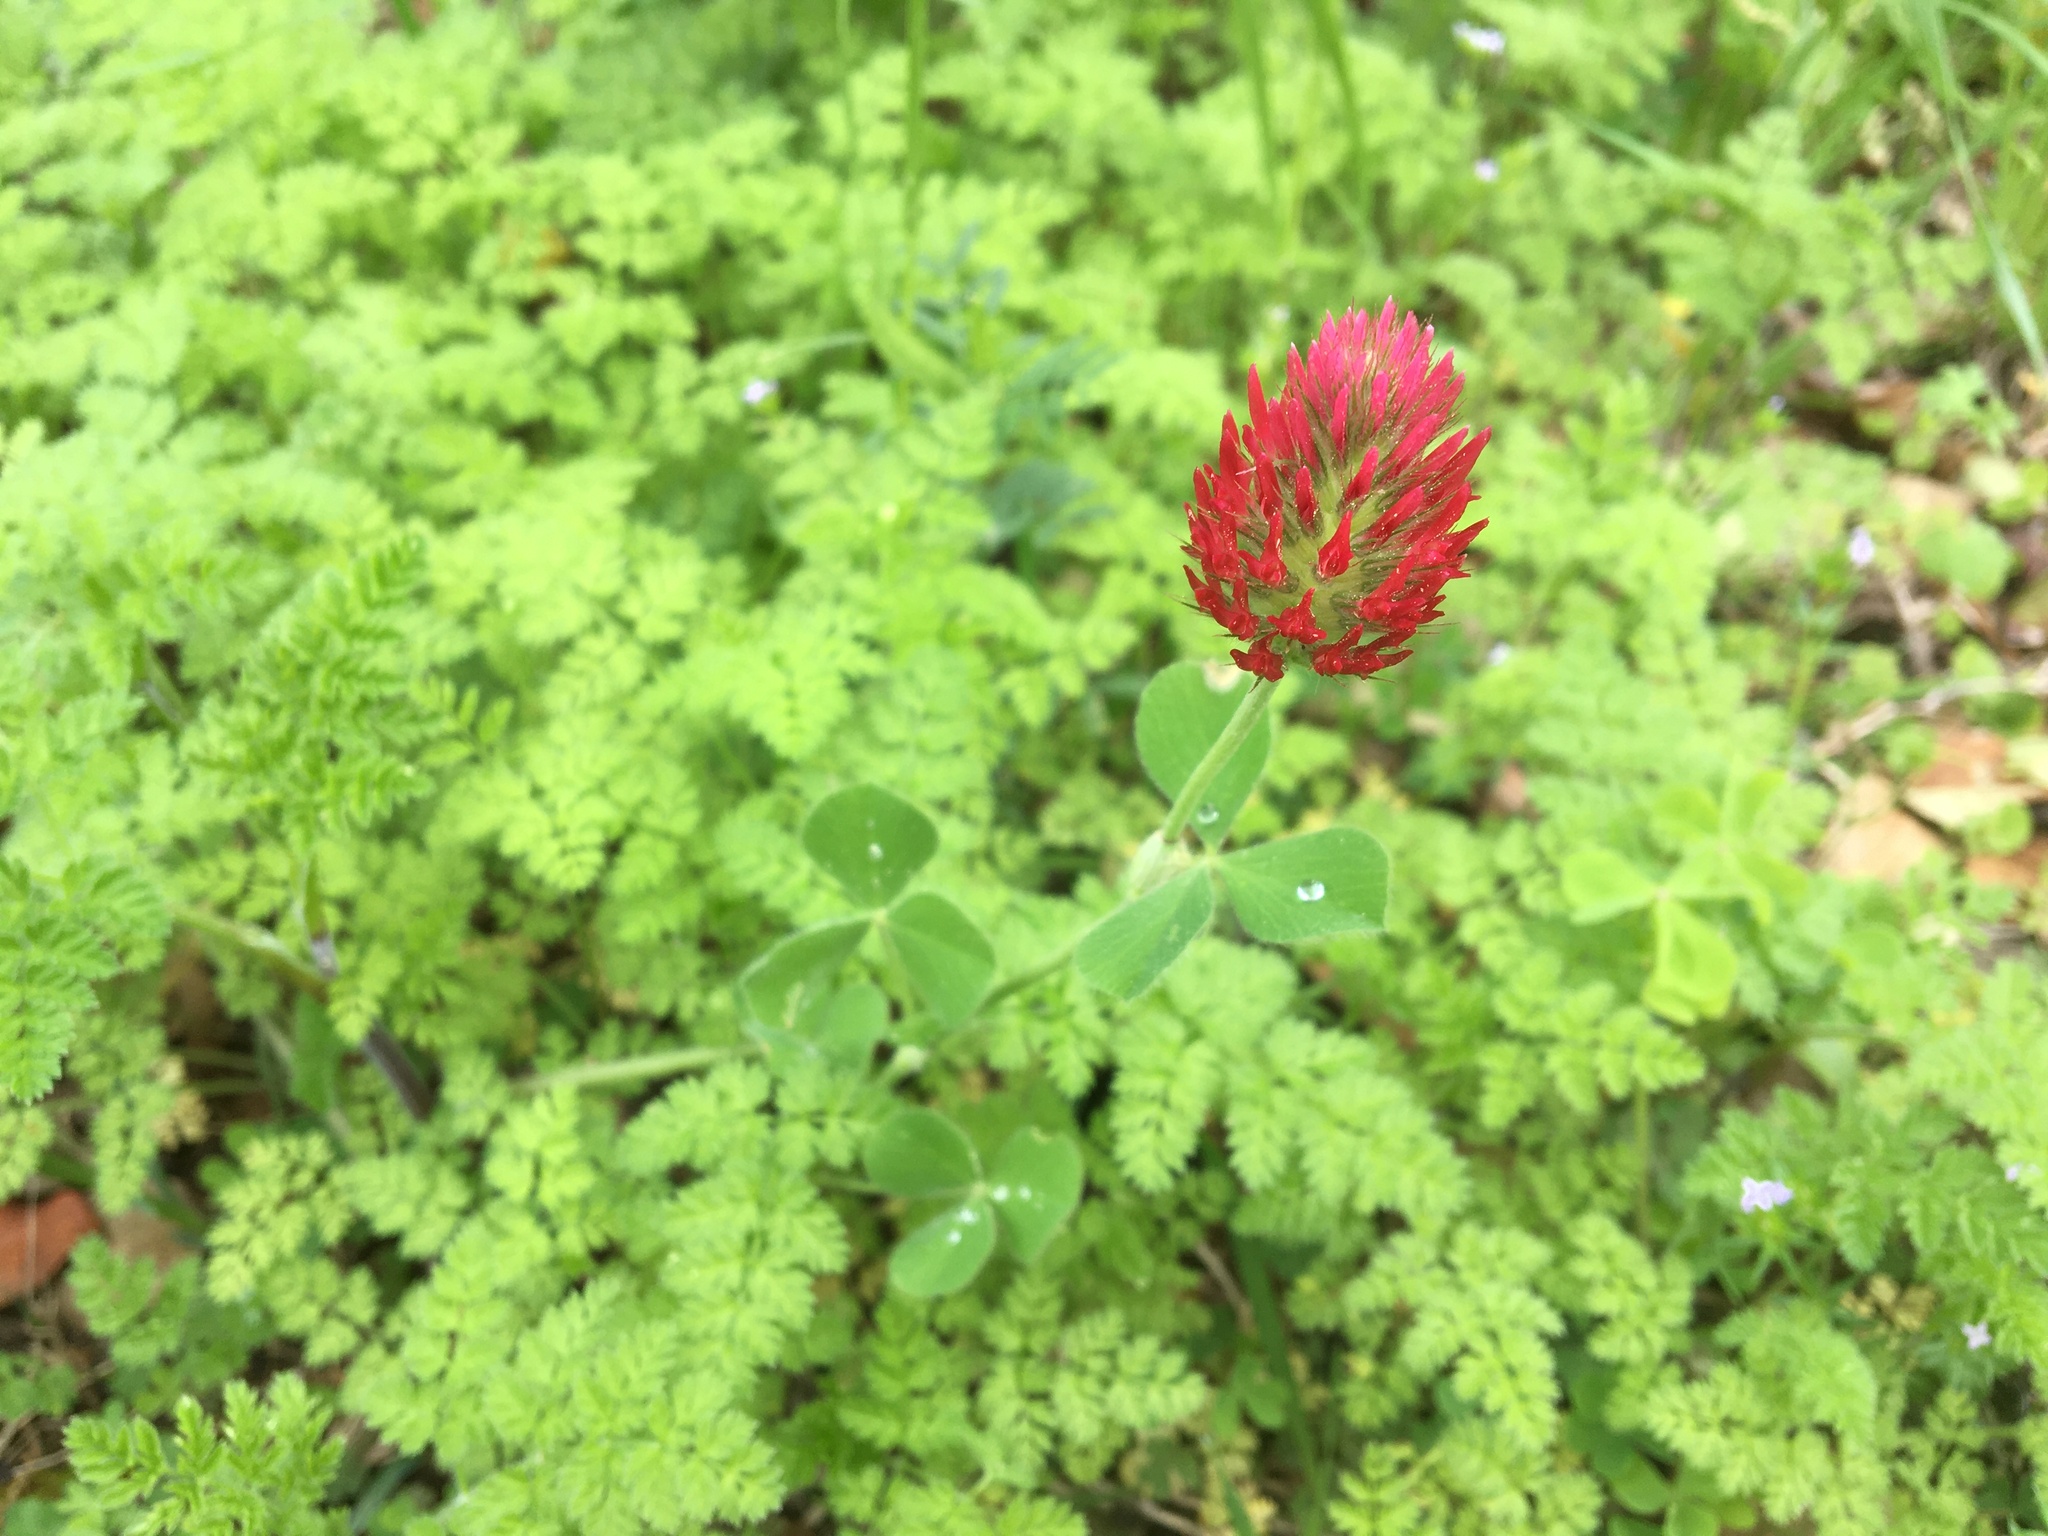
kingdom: Plantae
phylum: Tracheophyta
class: Magnoliopsida
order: Fabales
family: Fabaceae
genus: Trifolium
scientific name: Trifolium incarnatum
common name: Crimson clover
